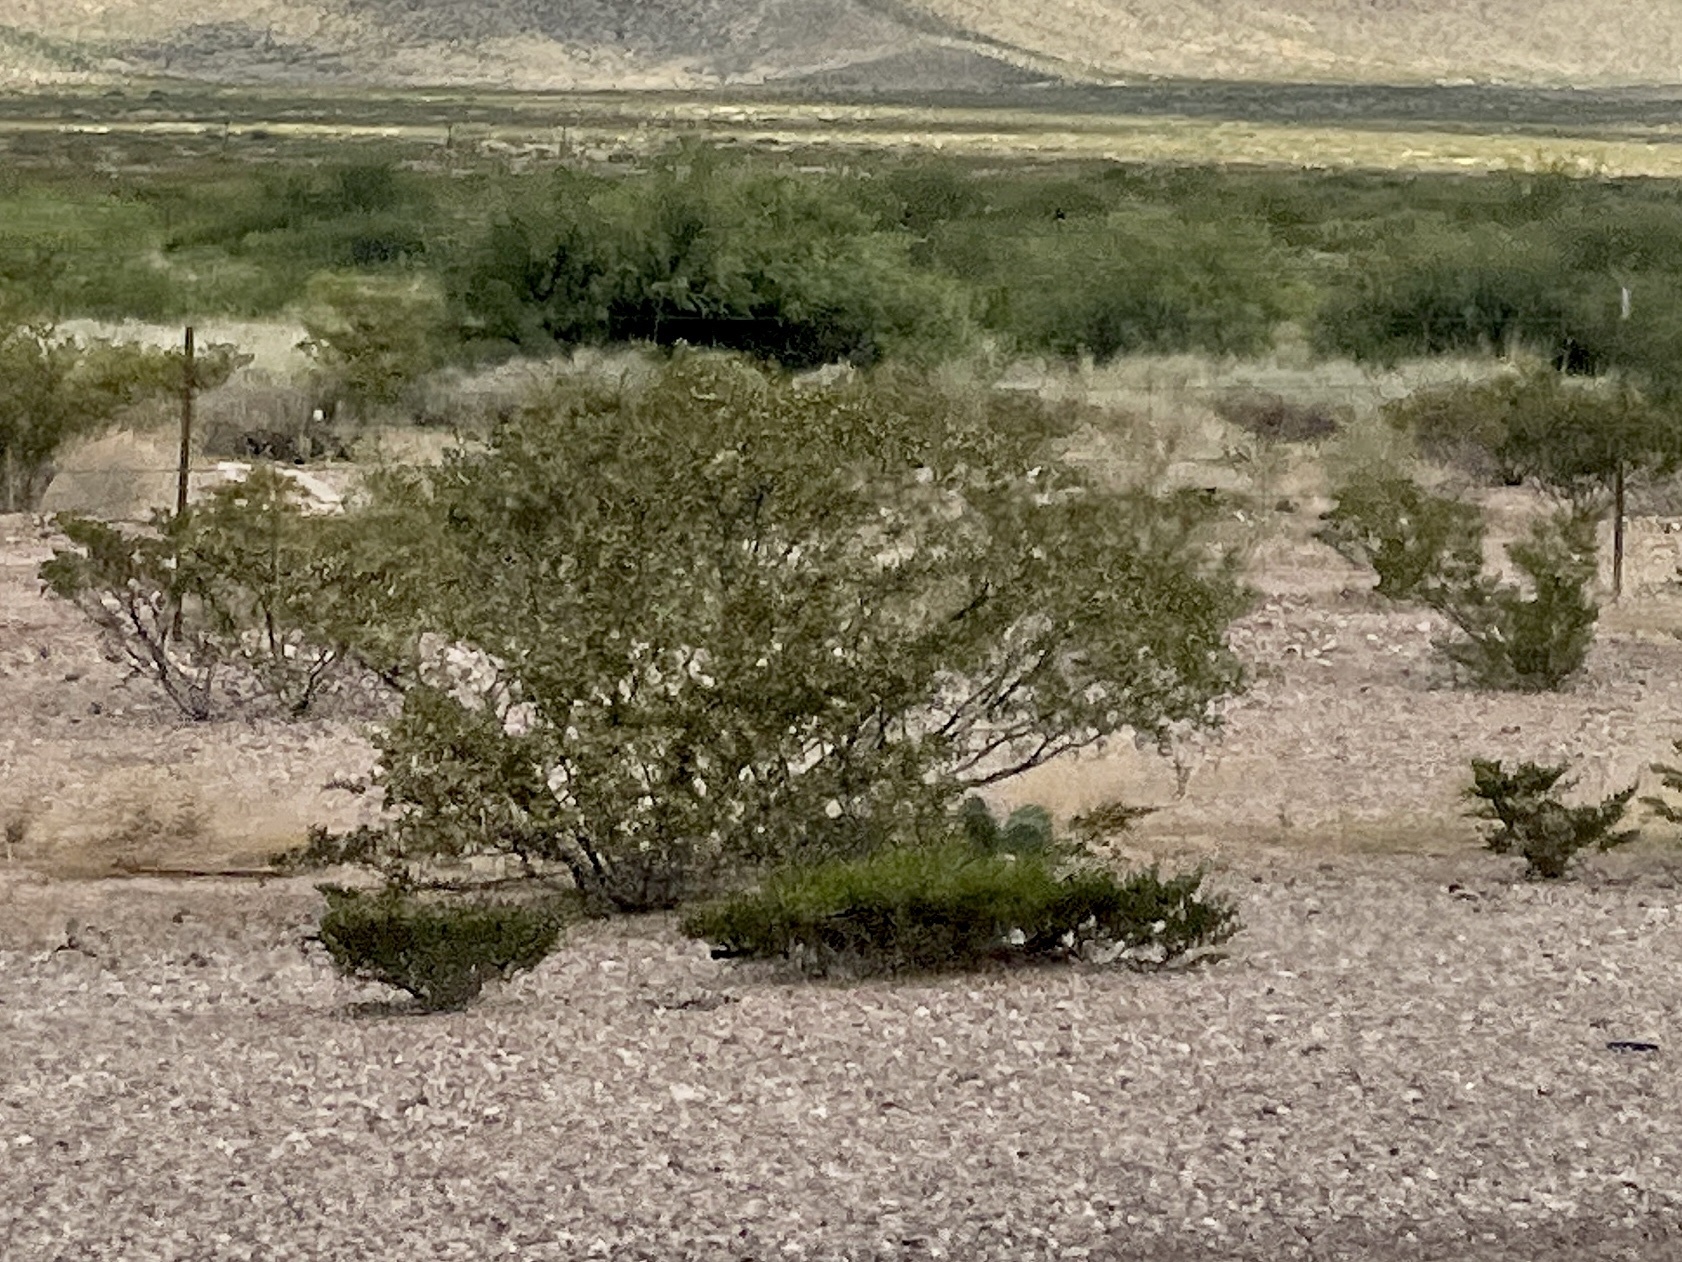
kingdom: Plantae
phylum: Tracheophyta
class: Magnoliopsida
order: Zygophyllales
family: Zygophyllaceae
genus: Larrea
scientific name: Larrea tridentata
